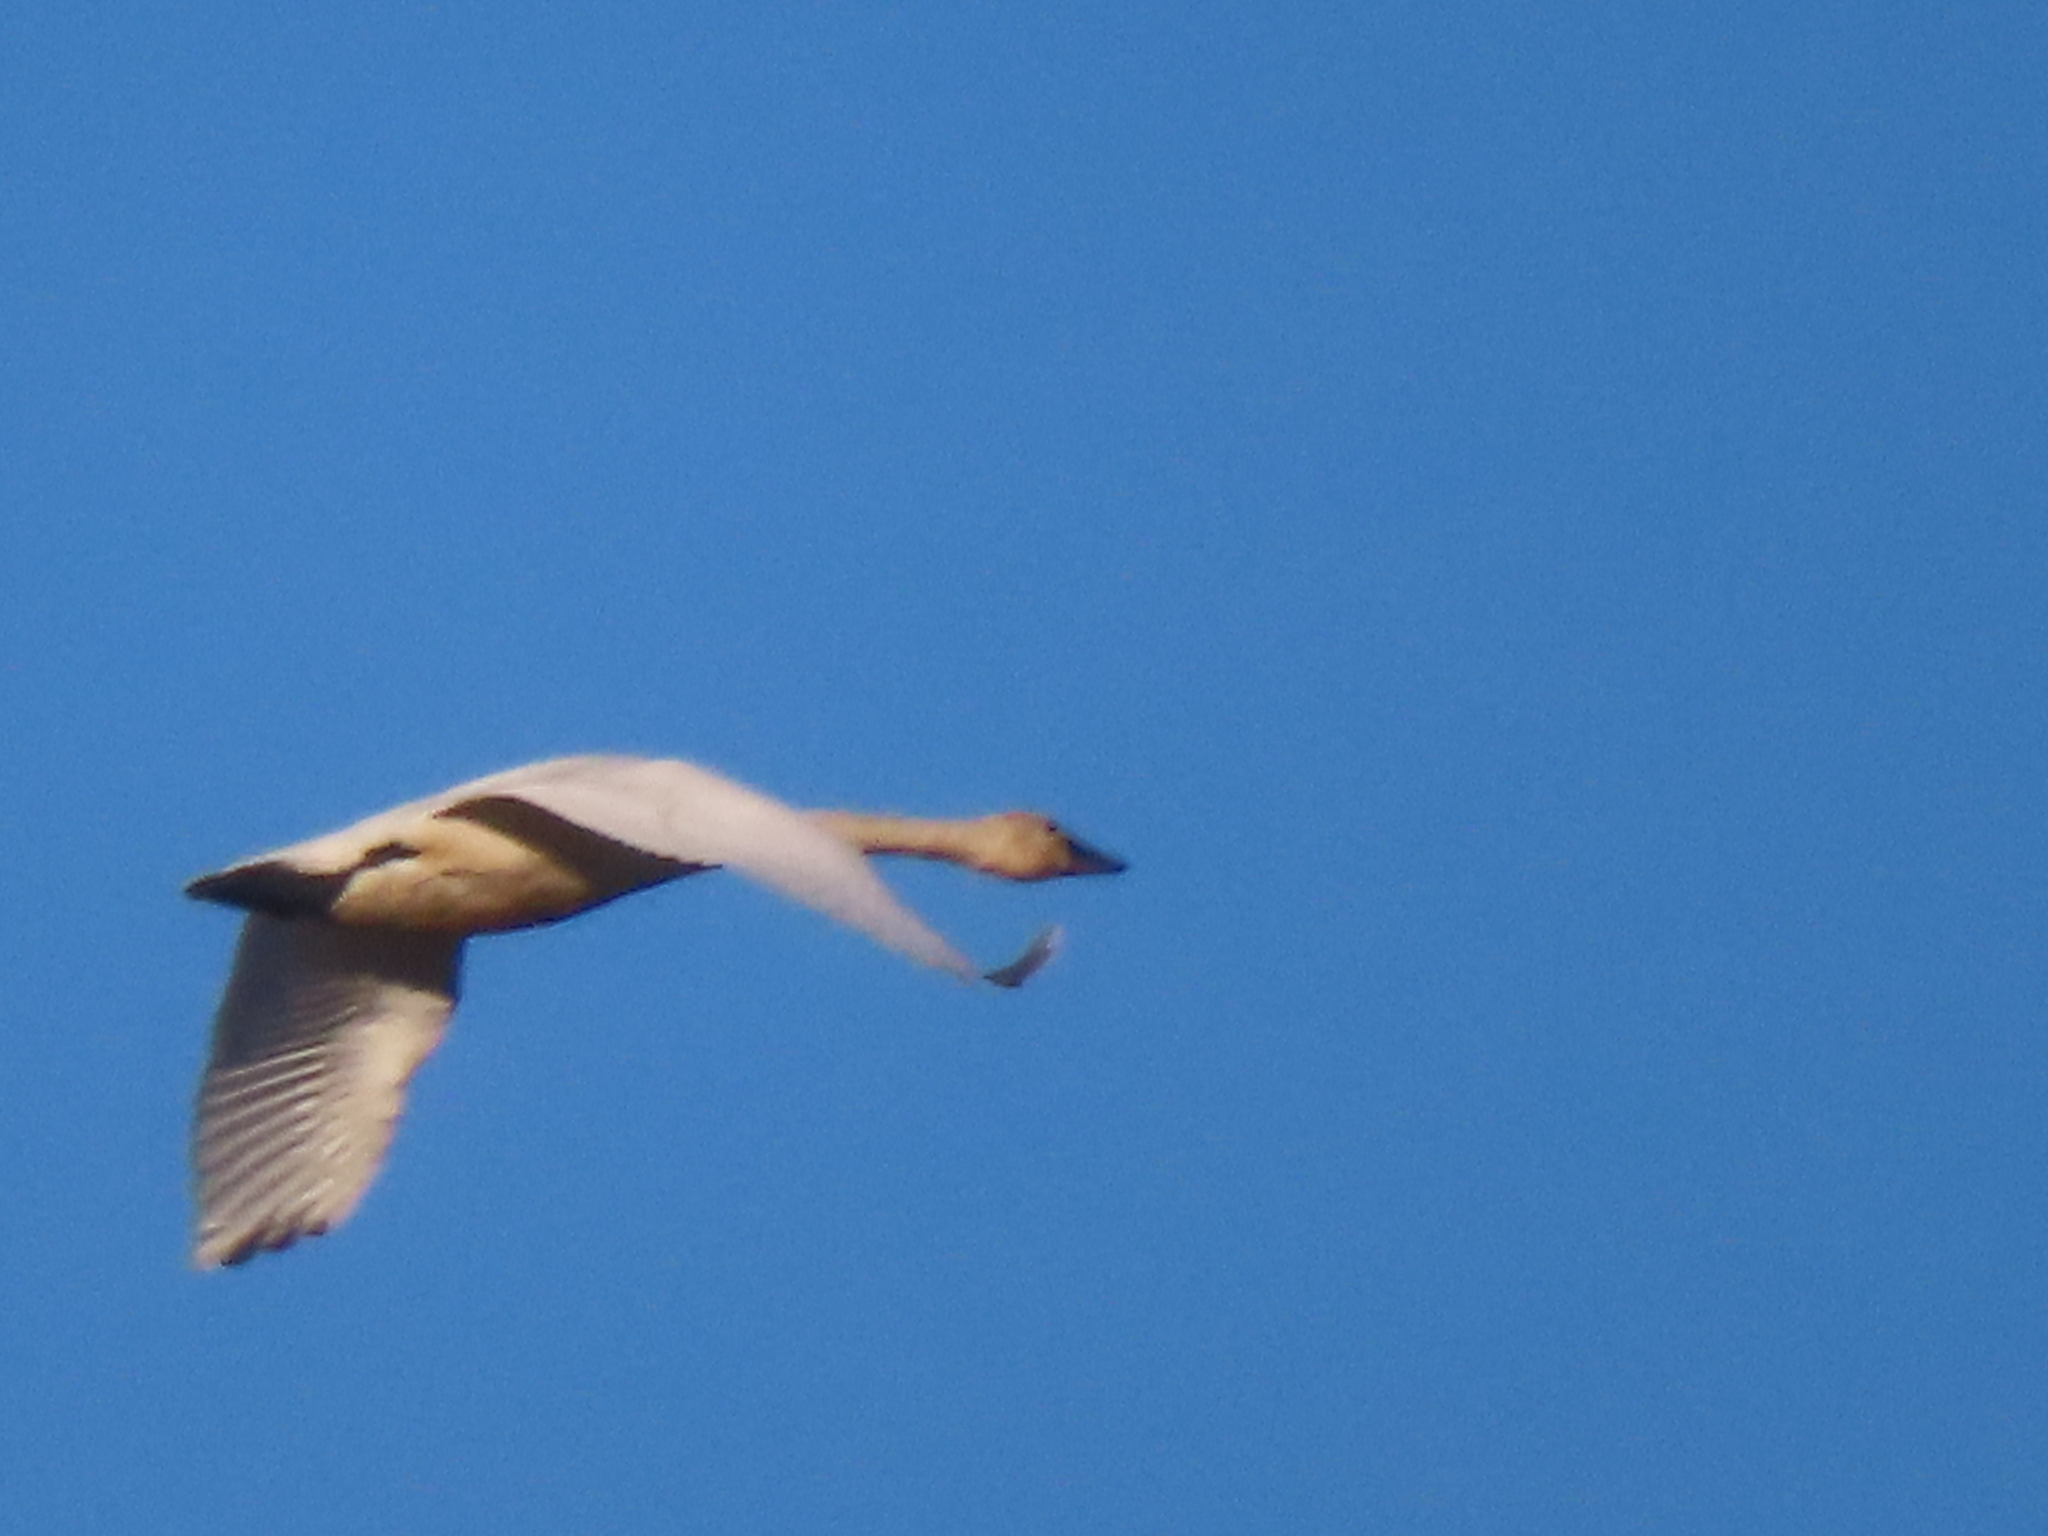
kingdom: Animalia
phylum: Chordata
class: Aves
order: Anseriformes
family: Anatidae
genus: Cygnus
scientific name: Cygnus columbianus
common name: Tundra swan
